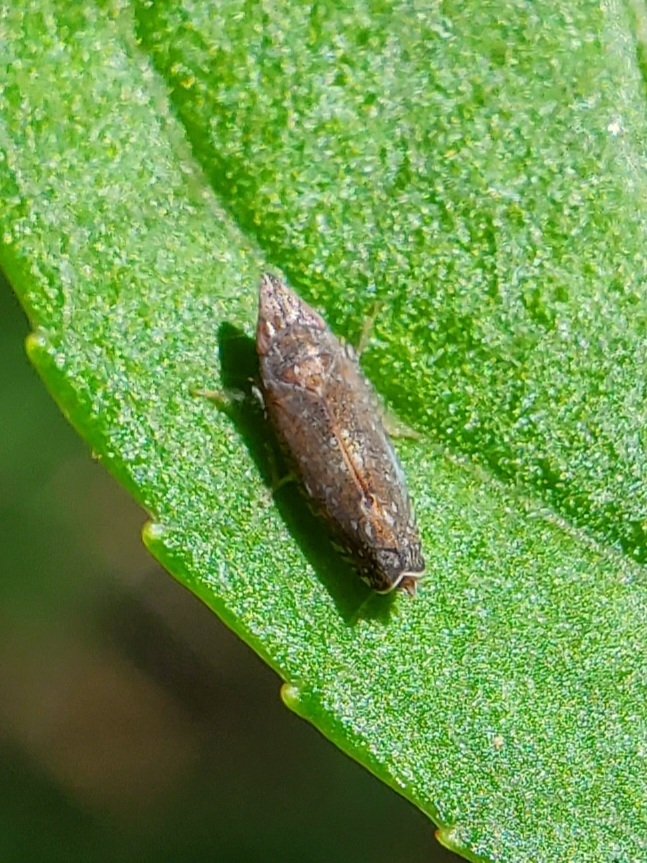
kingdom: Animalia
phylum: Arthropoda
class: Insecta
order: Hemiptera
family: Cicadellidae
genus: Scaphytopius
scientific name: Scaphytopius
